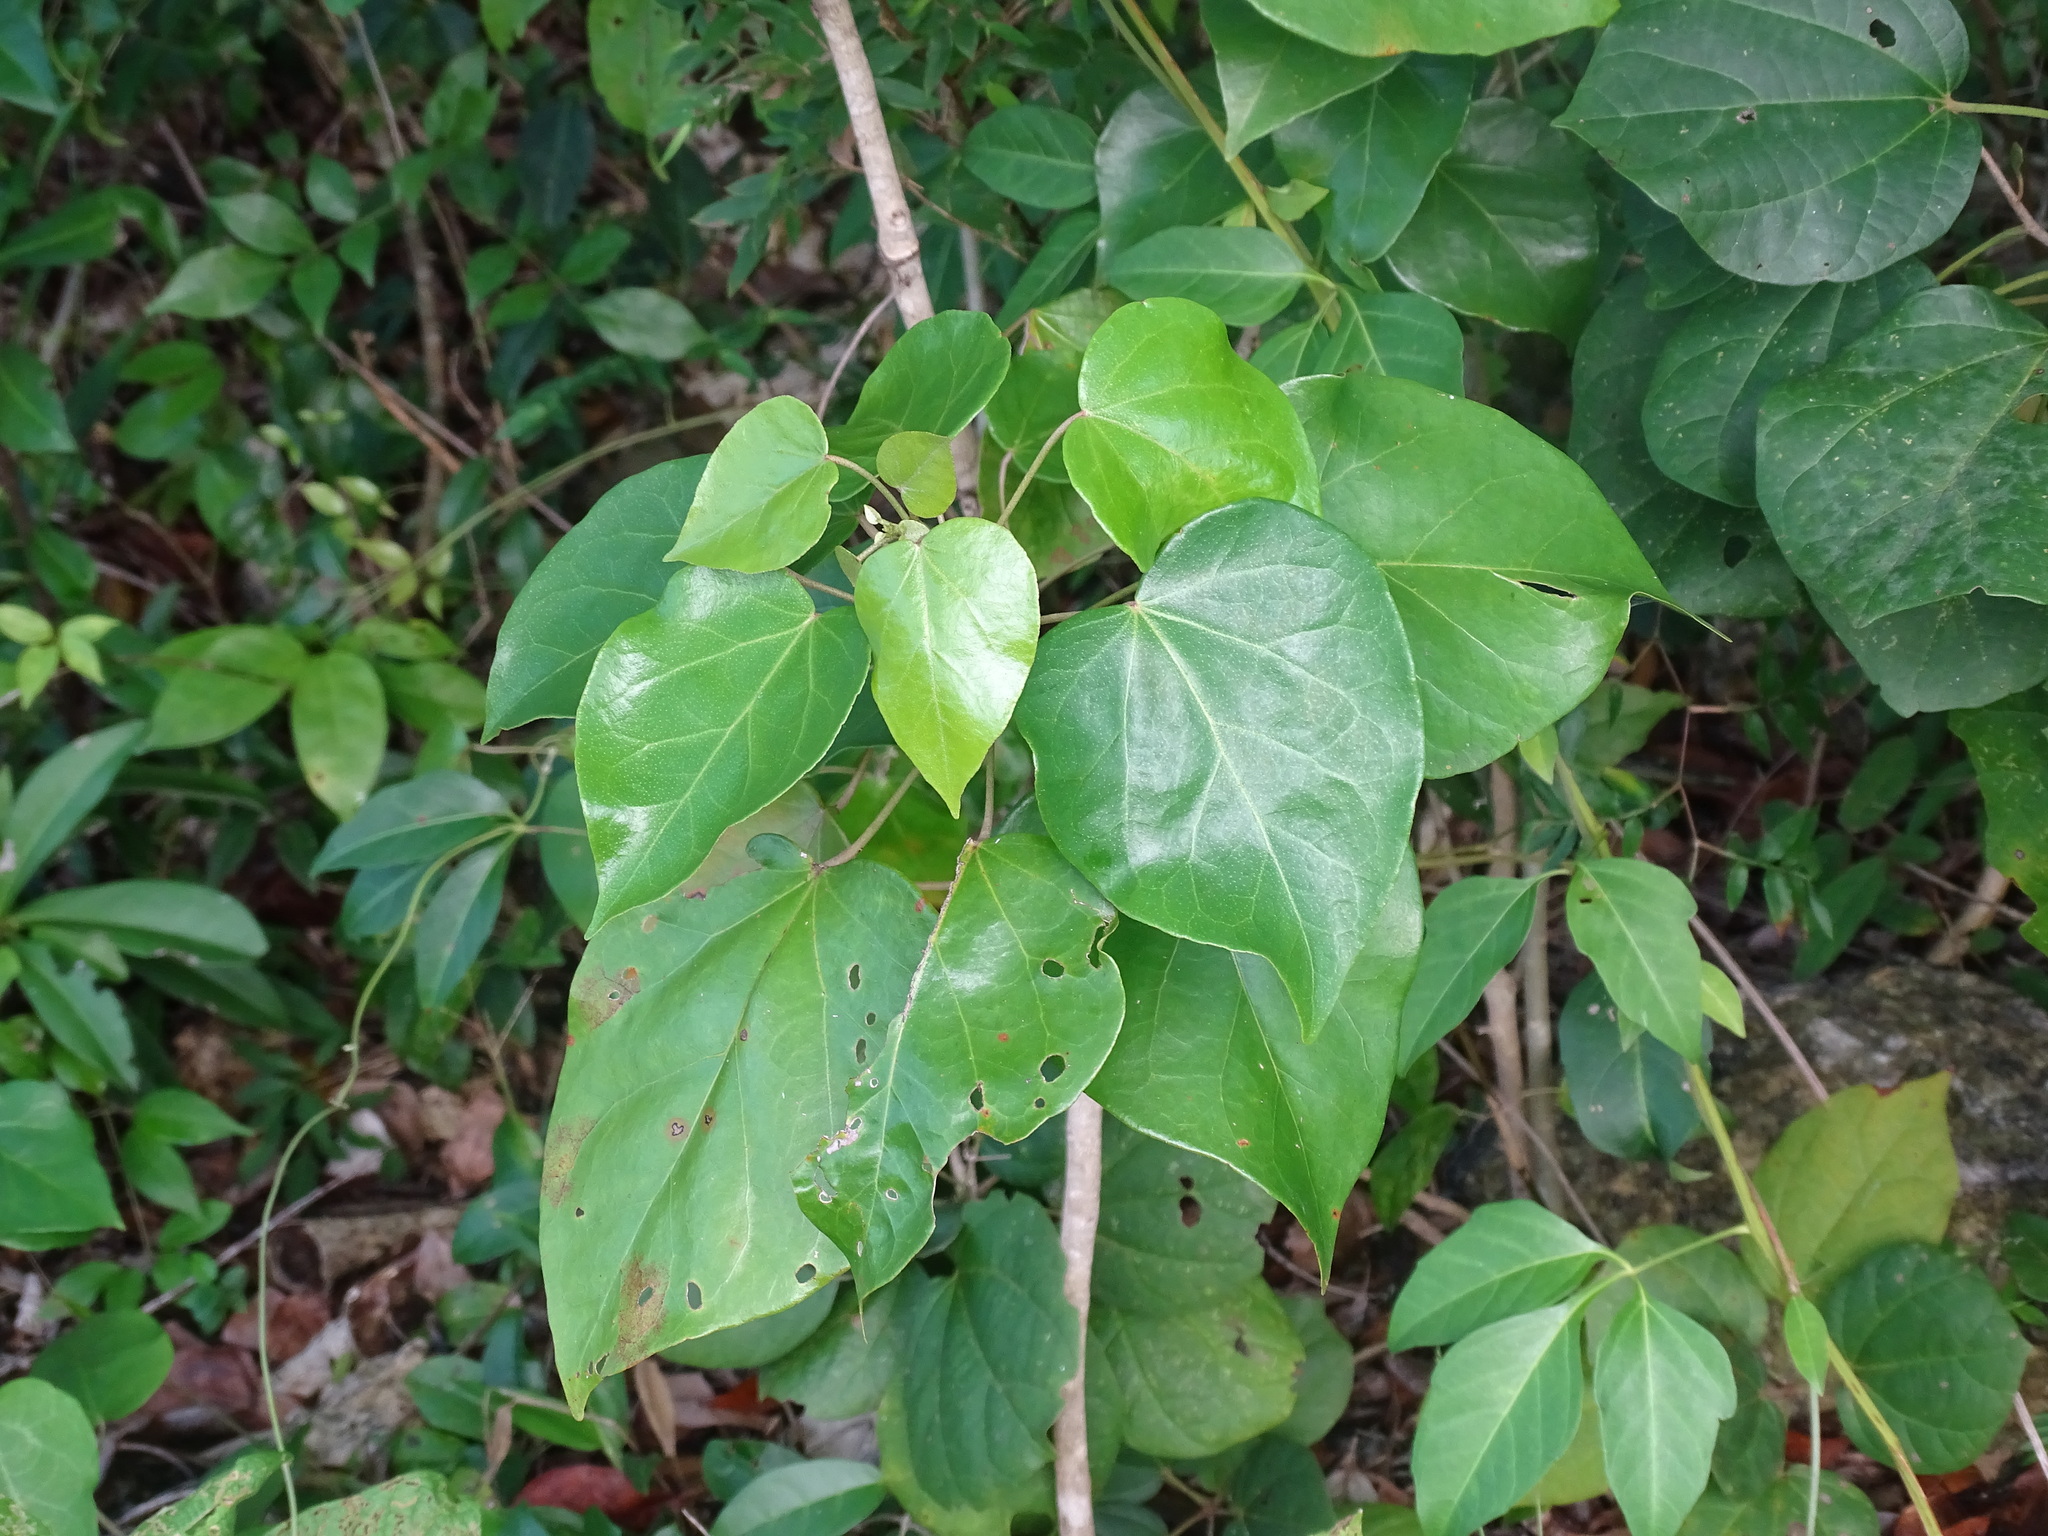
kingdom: Plantae
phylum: Tracheophyta
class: Magnoliopsida
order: Malpighiales
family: Euphorbiaceae
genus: Croton
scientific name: Croton arboreus
